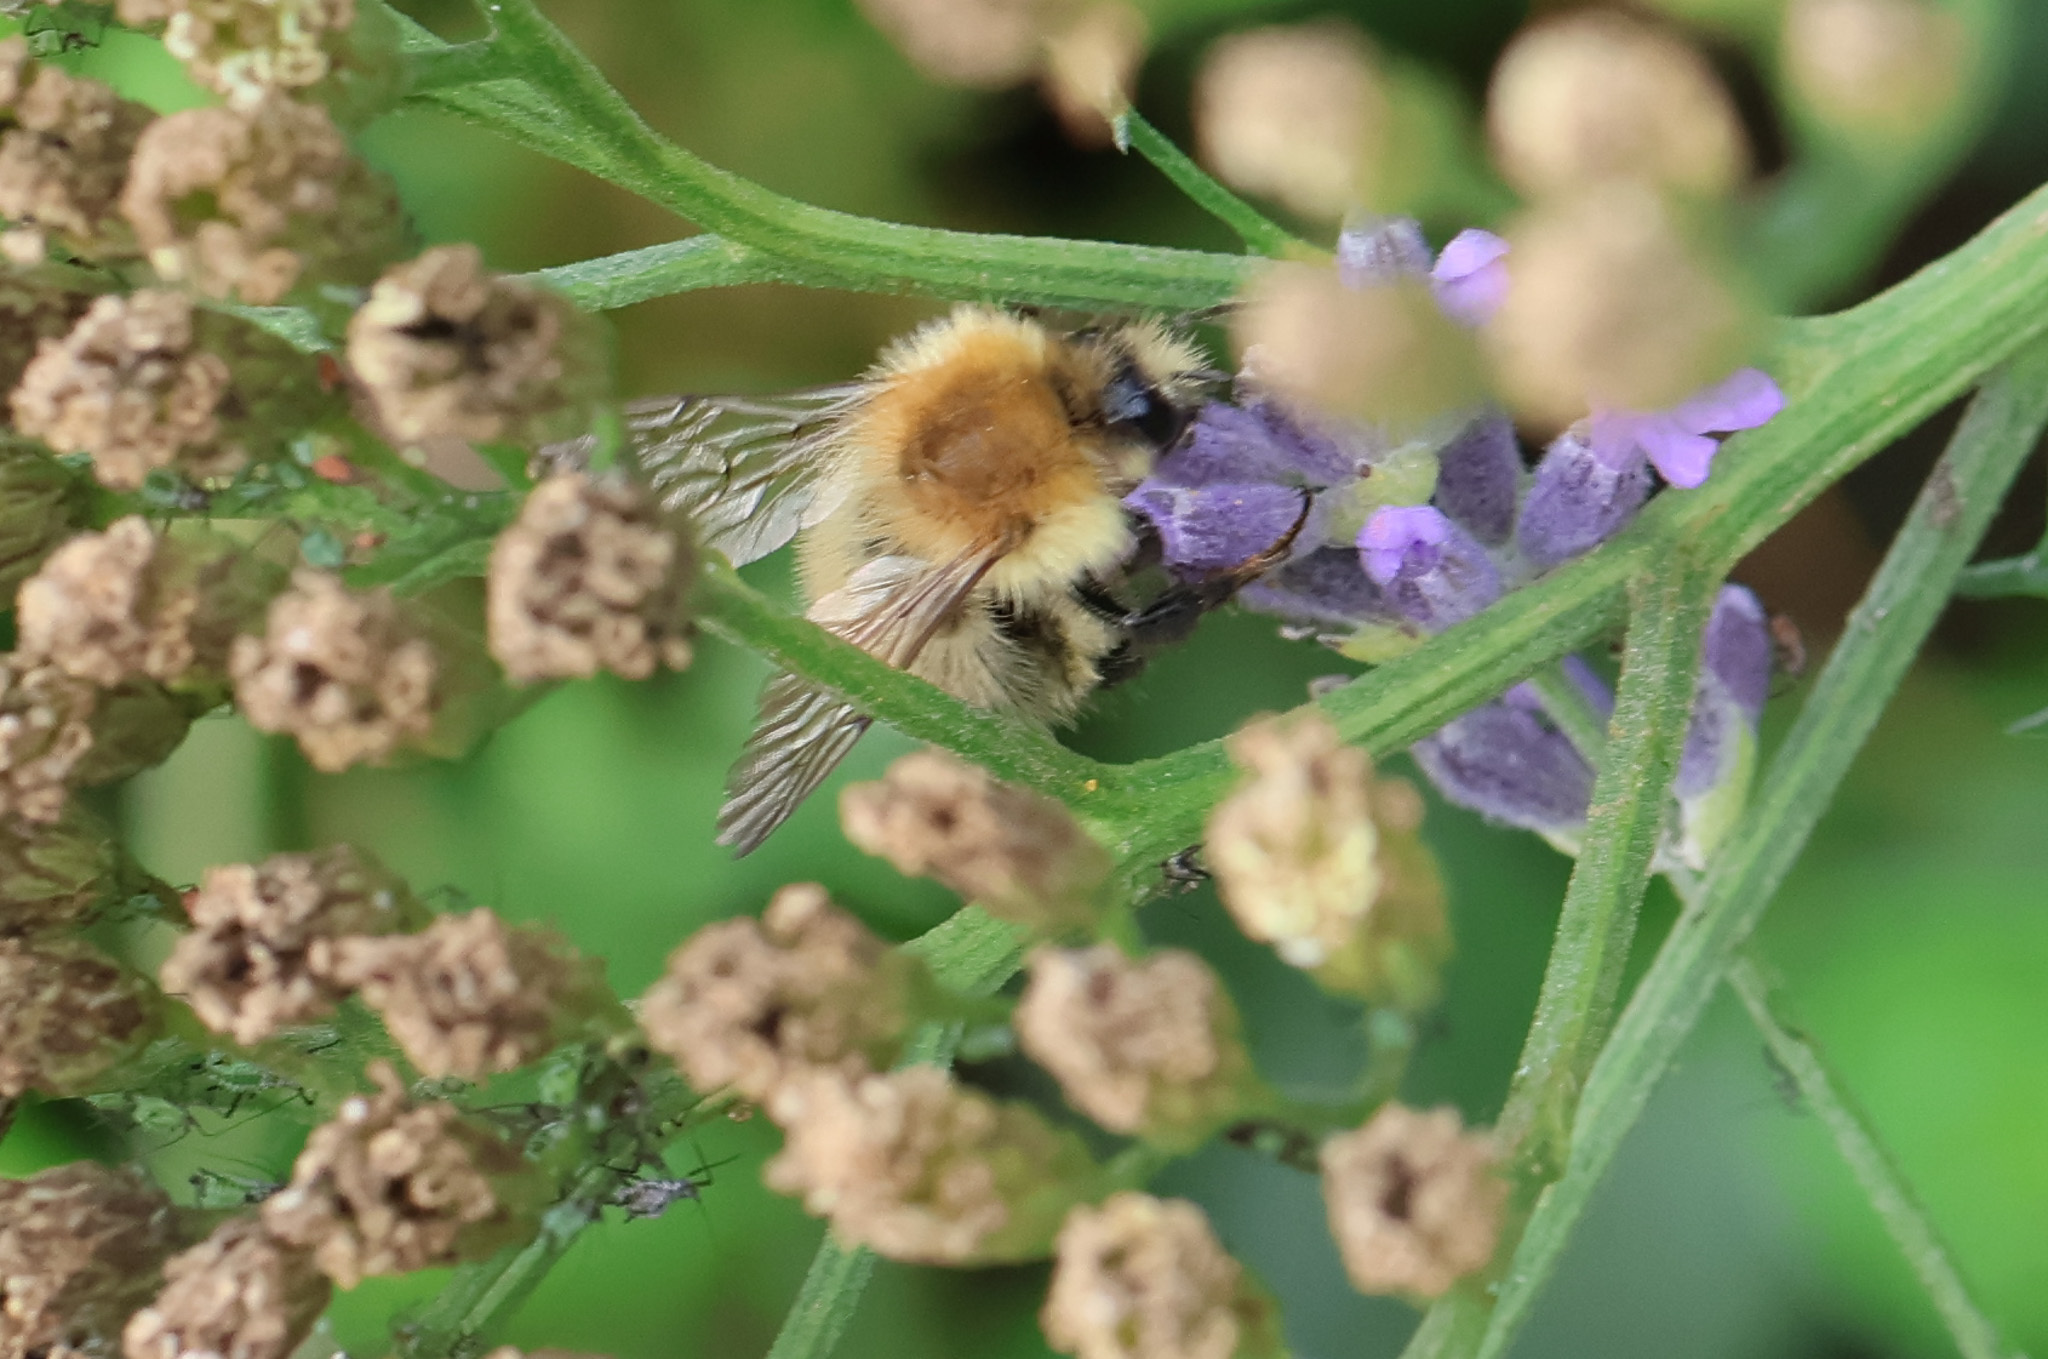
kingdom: Animalia
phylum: Arthropoda
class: Insecta
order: Hymenoptera
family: Apidae
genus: Bombus
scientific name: Bombus pascuorum
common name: Common carder bee
